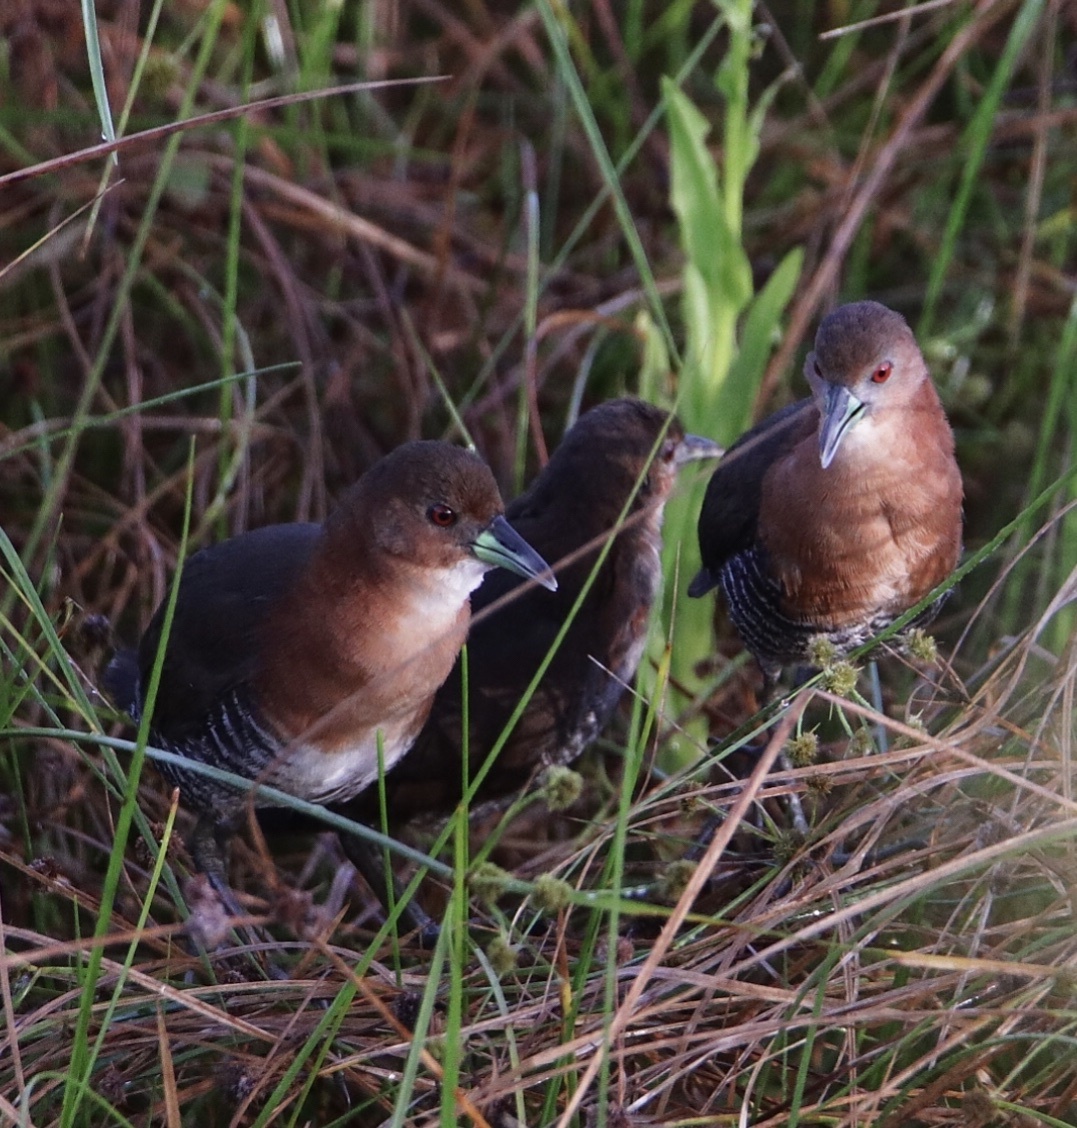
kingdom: Animalia
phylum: Chordata
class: Aves
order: Gruiformes
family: Rallidae
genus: Laterallus
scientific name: Laterallus albigularis
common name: White-throated crake
